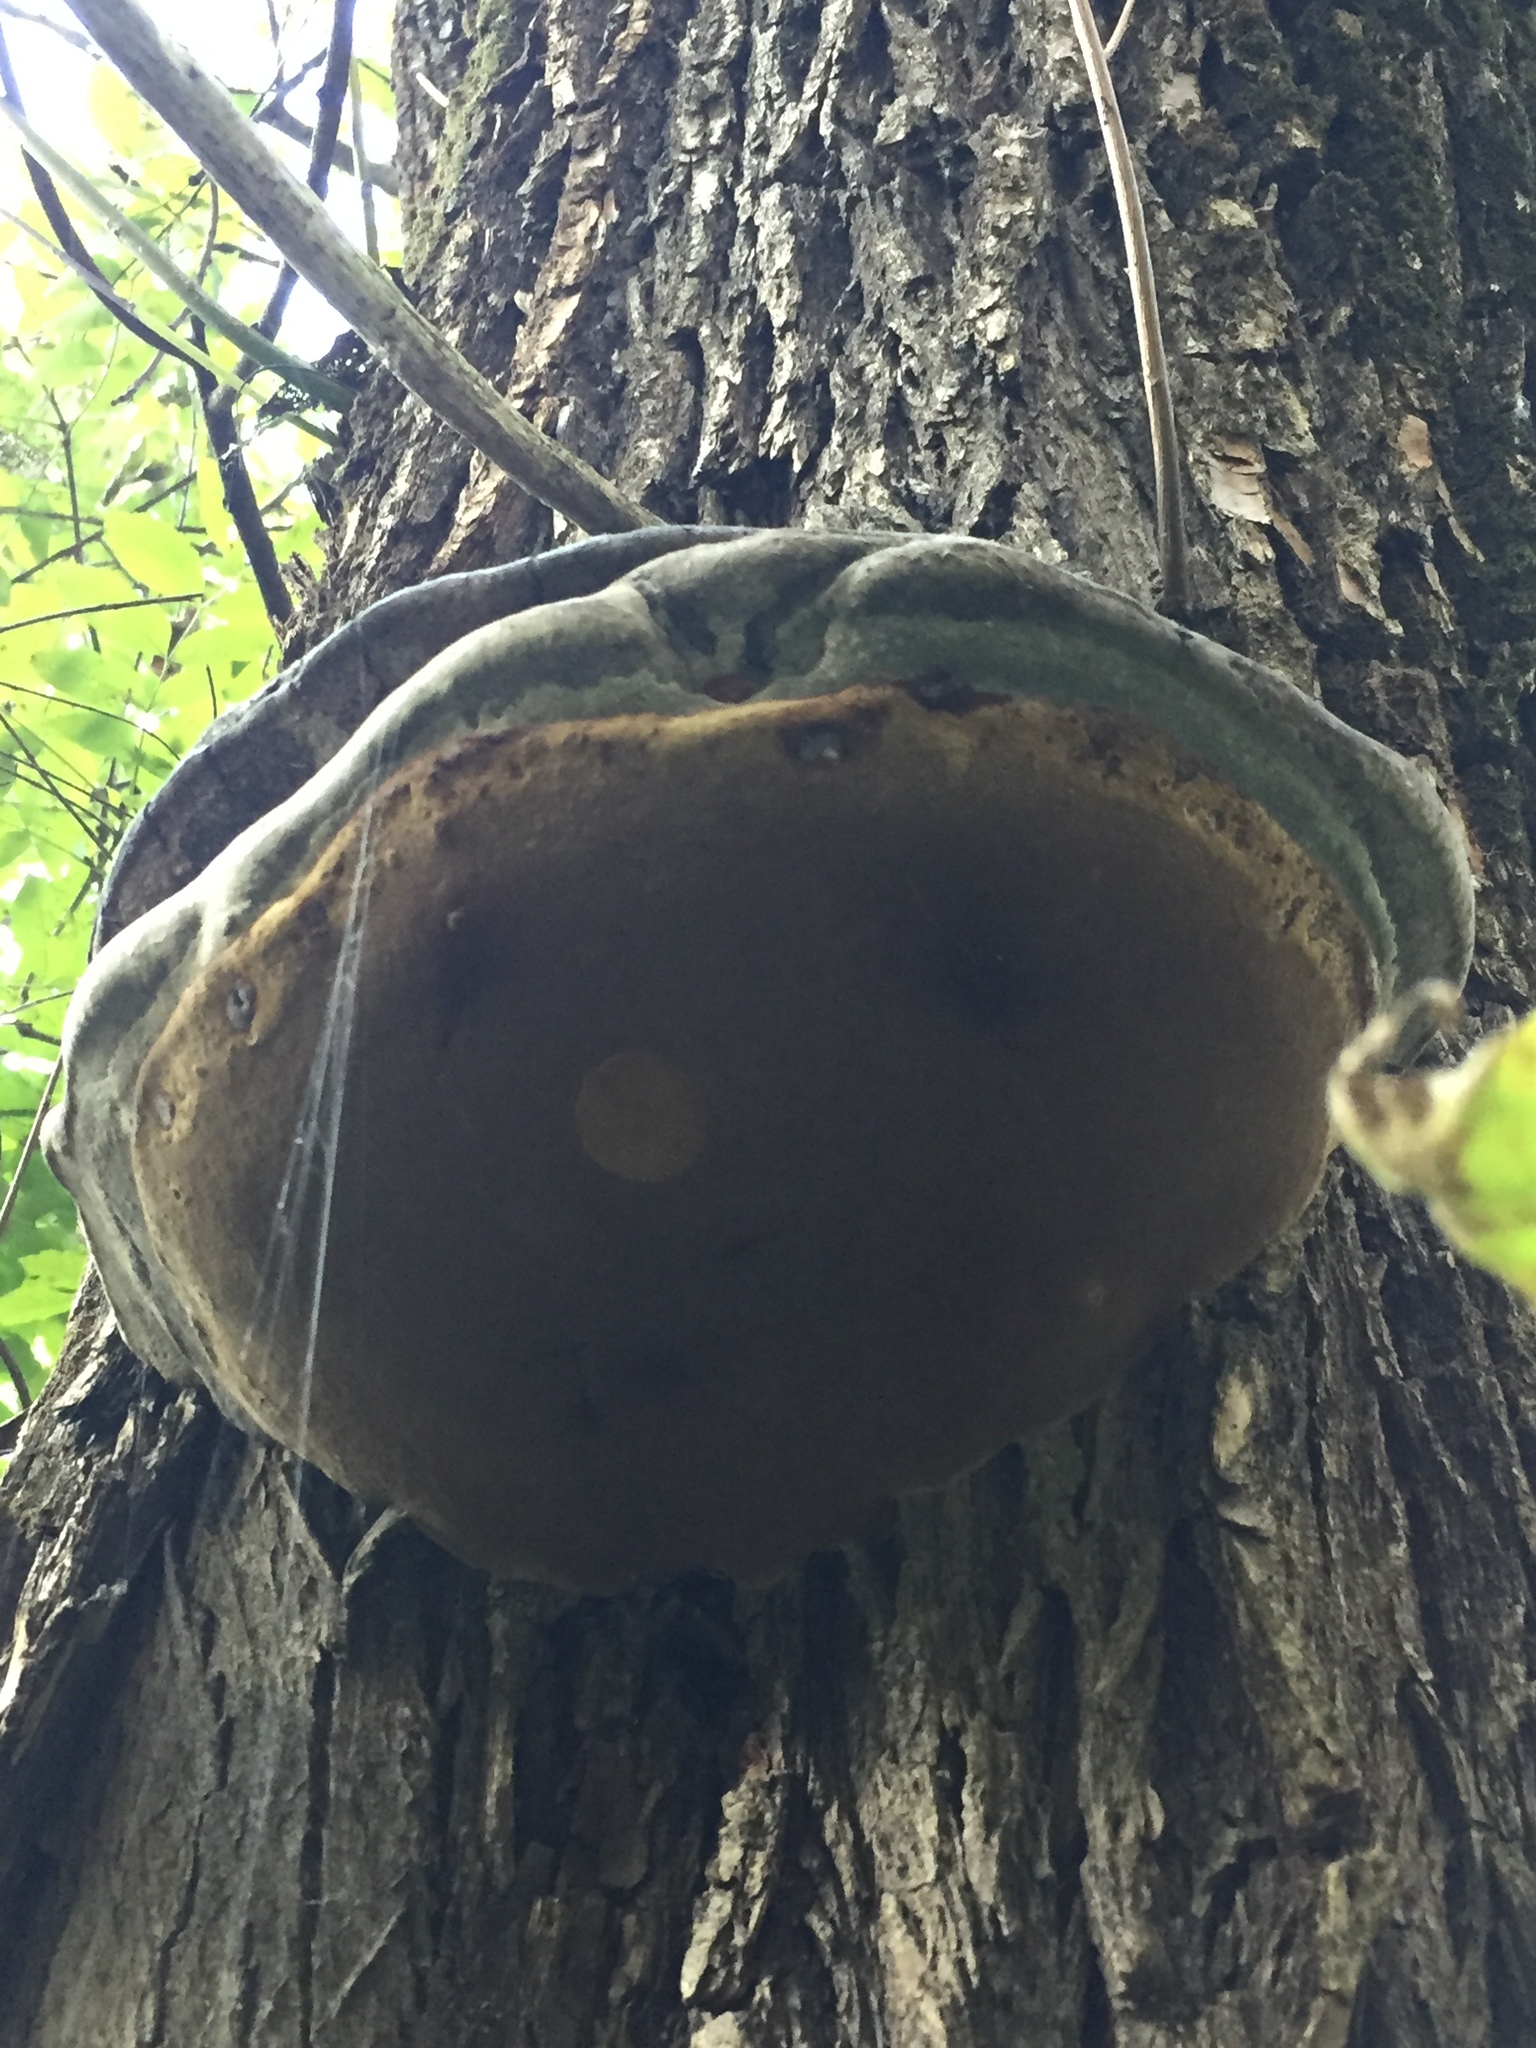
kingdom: Fungi
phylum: Basidiomycota
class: Agaricomycetes
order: Hymenochaetales
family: Hymenochaetaceae
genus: Phellinus
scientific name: Phellinus igniarius
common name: Willow bracket
